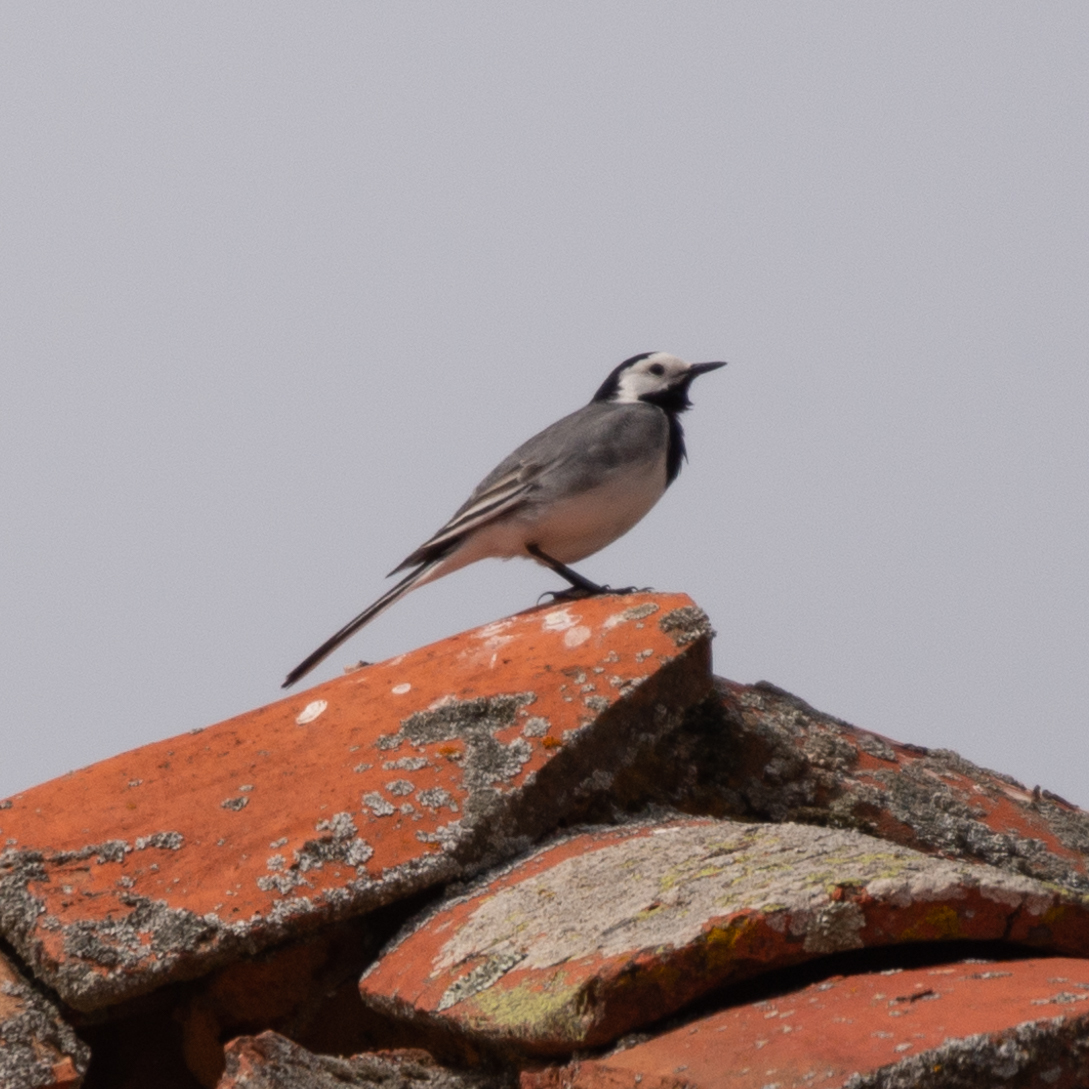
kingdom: Animalia
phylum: Chordata
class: Aves
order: Passeriformes
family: Motacillidae
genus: Motacilla
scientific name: Motacilla alba
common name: White wagtail
